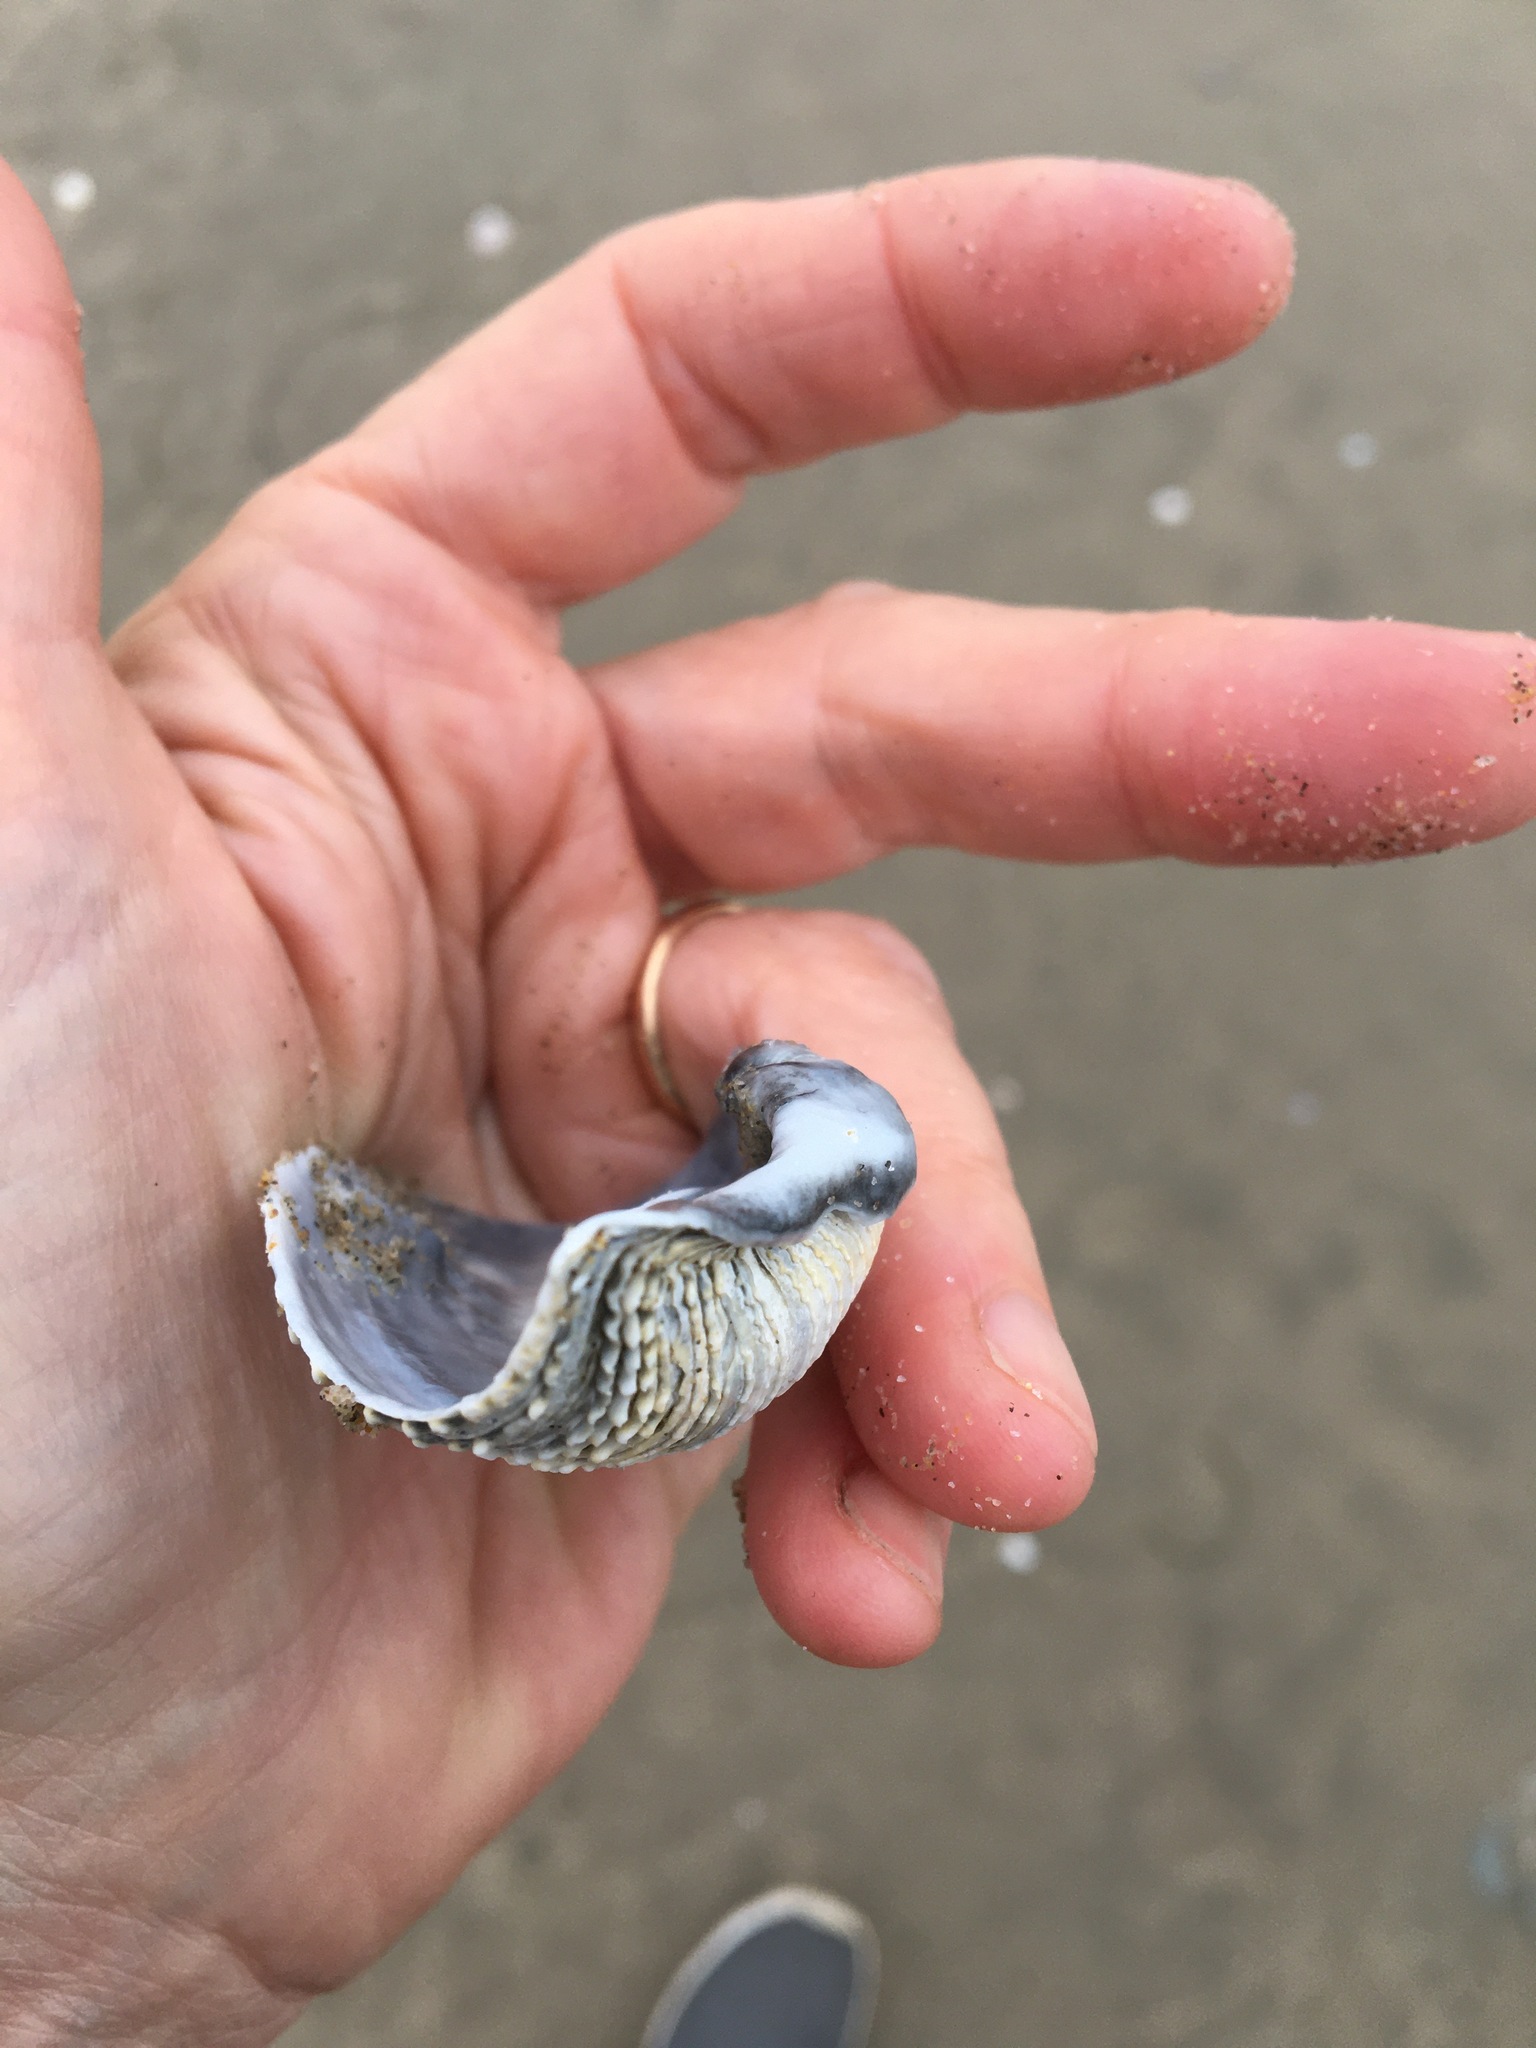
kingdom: Animalia
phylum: Mollusca
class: Bivalvia
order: Myida
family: Pholadidae
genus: Zirfaea
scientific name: Zirfaea pilsbryi
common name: Rough piddock
